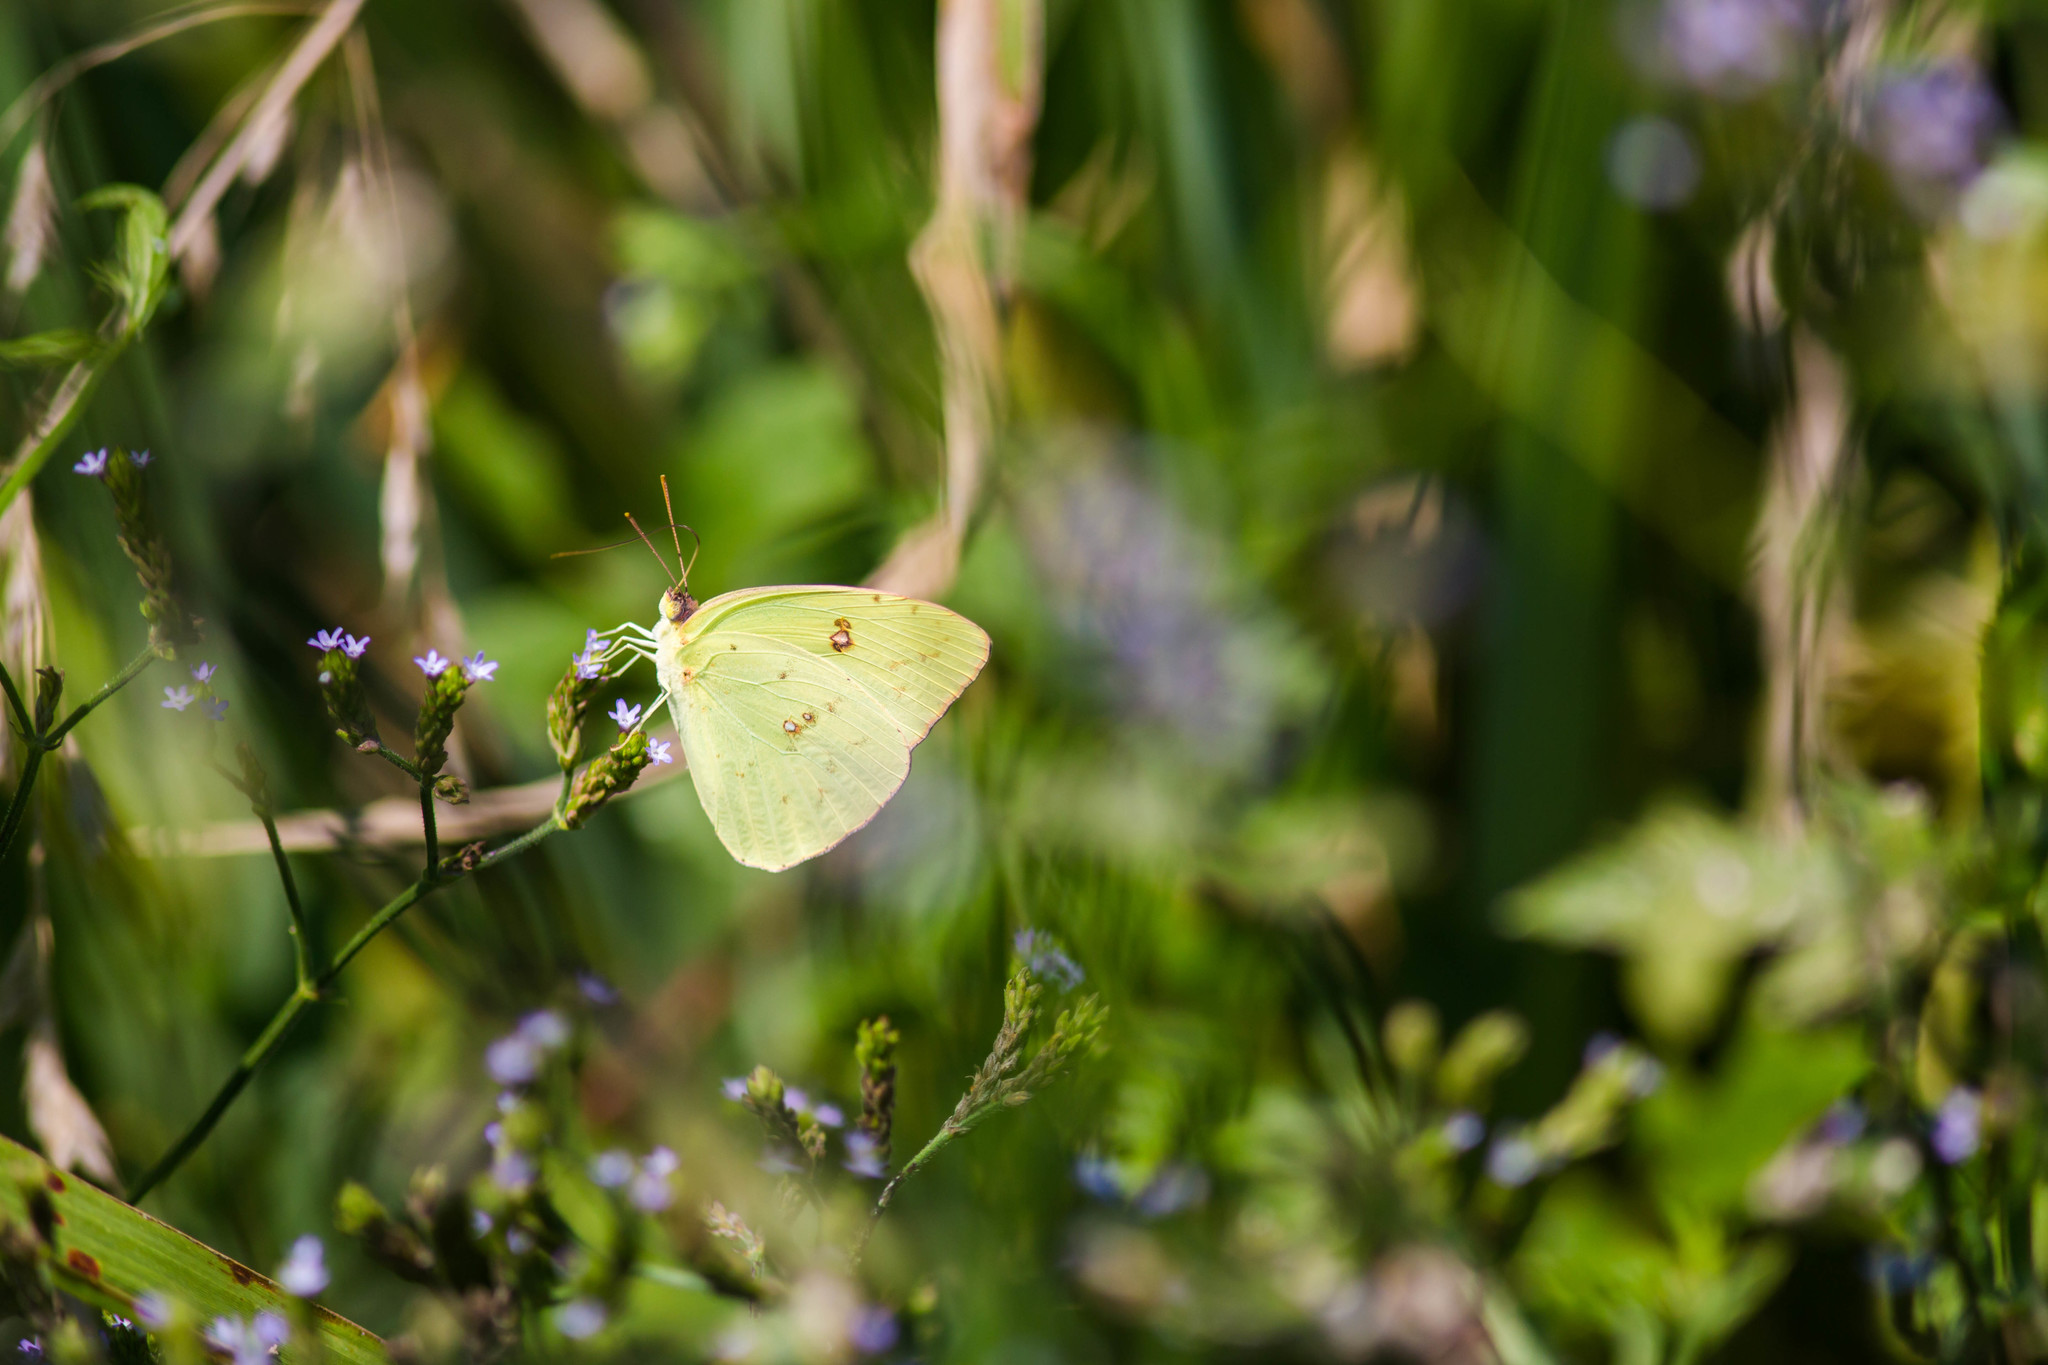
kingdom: Animalia
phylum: Arthropoda
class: Insecta
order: Lepidoptera
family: Pieridae
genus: Phoebis
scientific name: Phoebis sennae
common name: Cloudless sulphur
